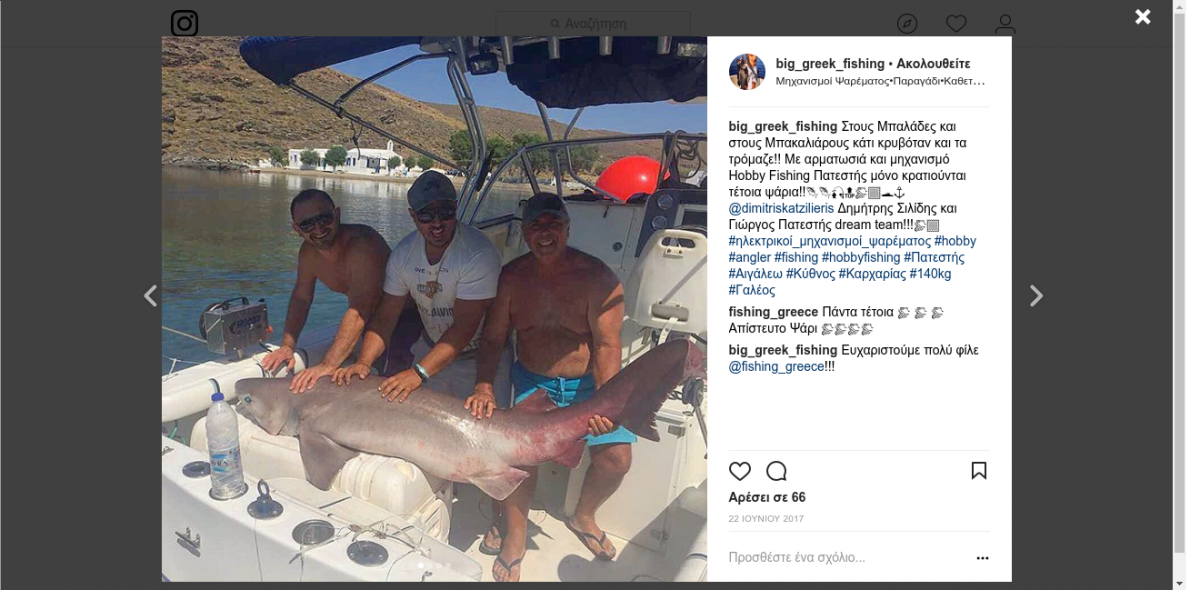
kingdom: Animalia
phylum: Chordata
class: Elasmobranchii
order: Hexanchiformes
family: Hexanchidae
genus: Hexanchus
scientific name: Hexanchus griseus
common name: Bluntnose sixgill shark
